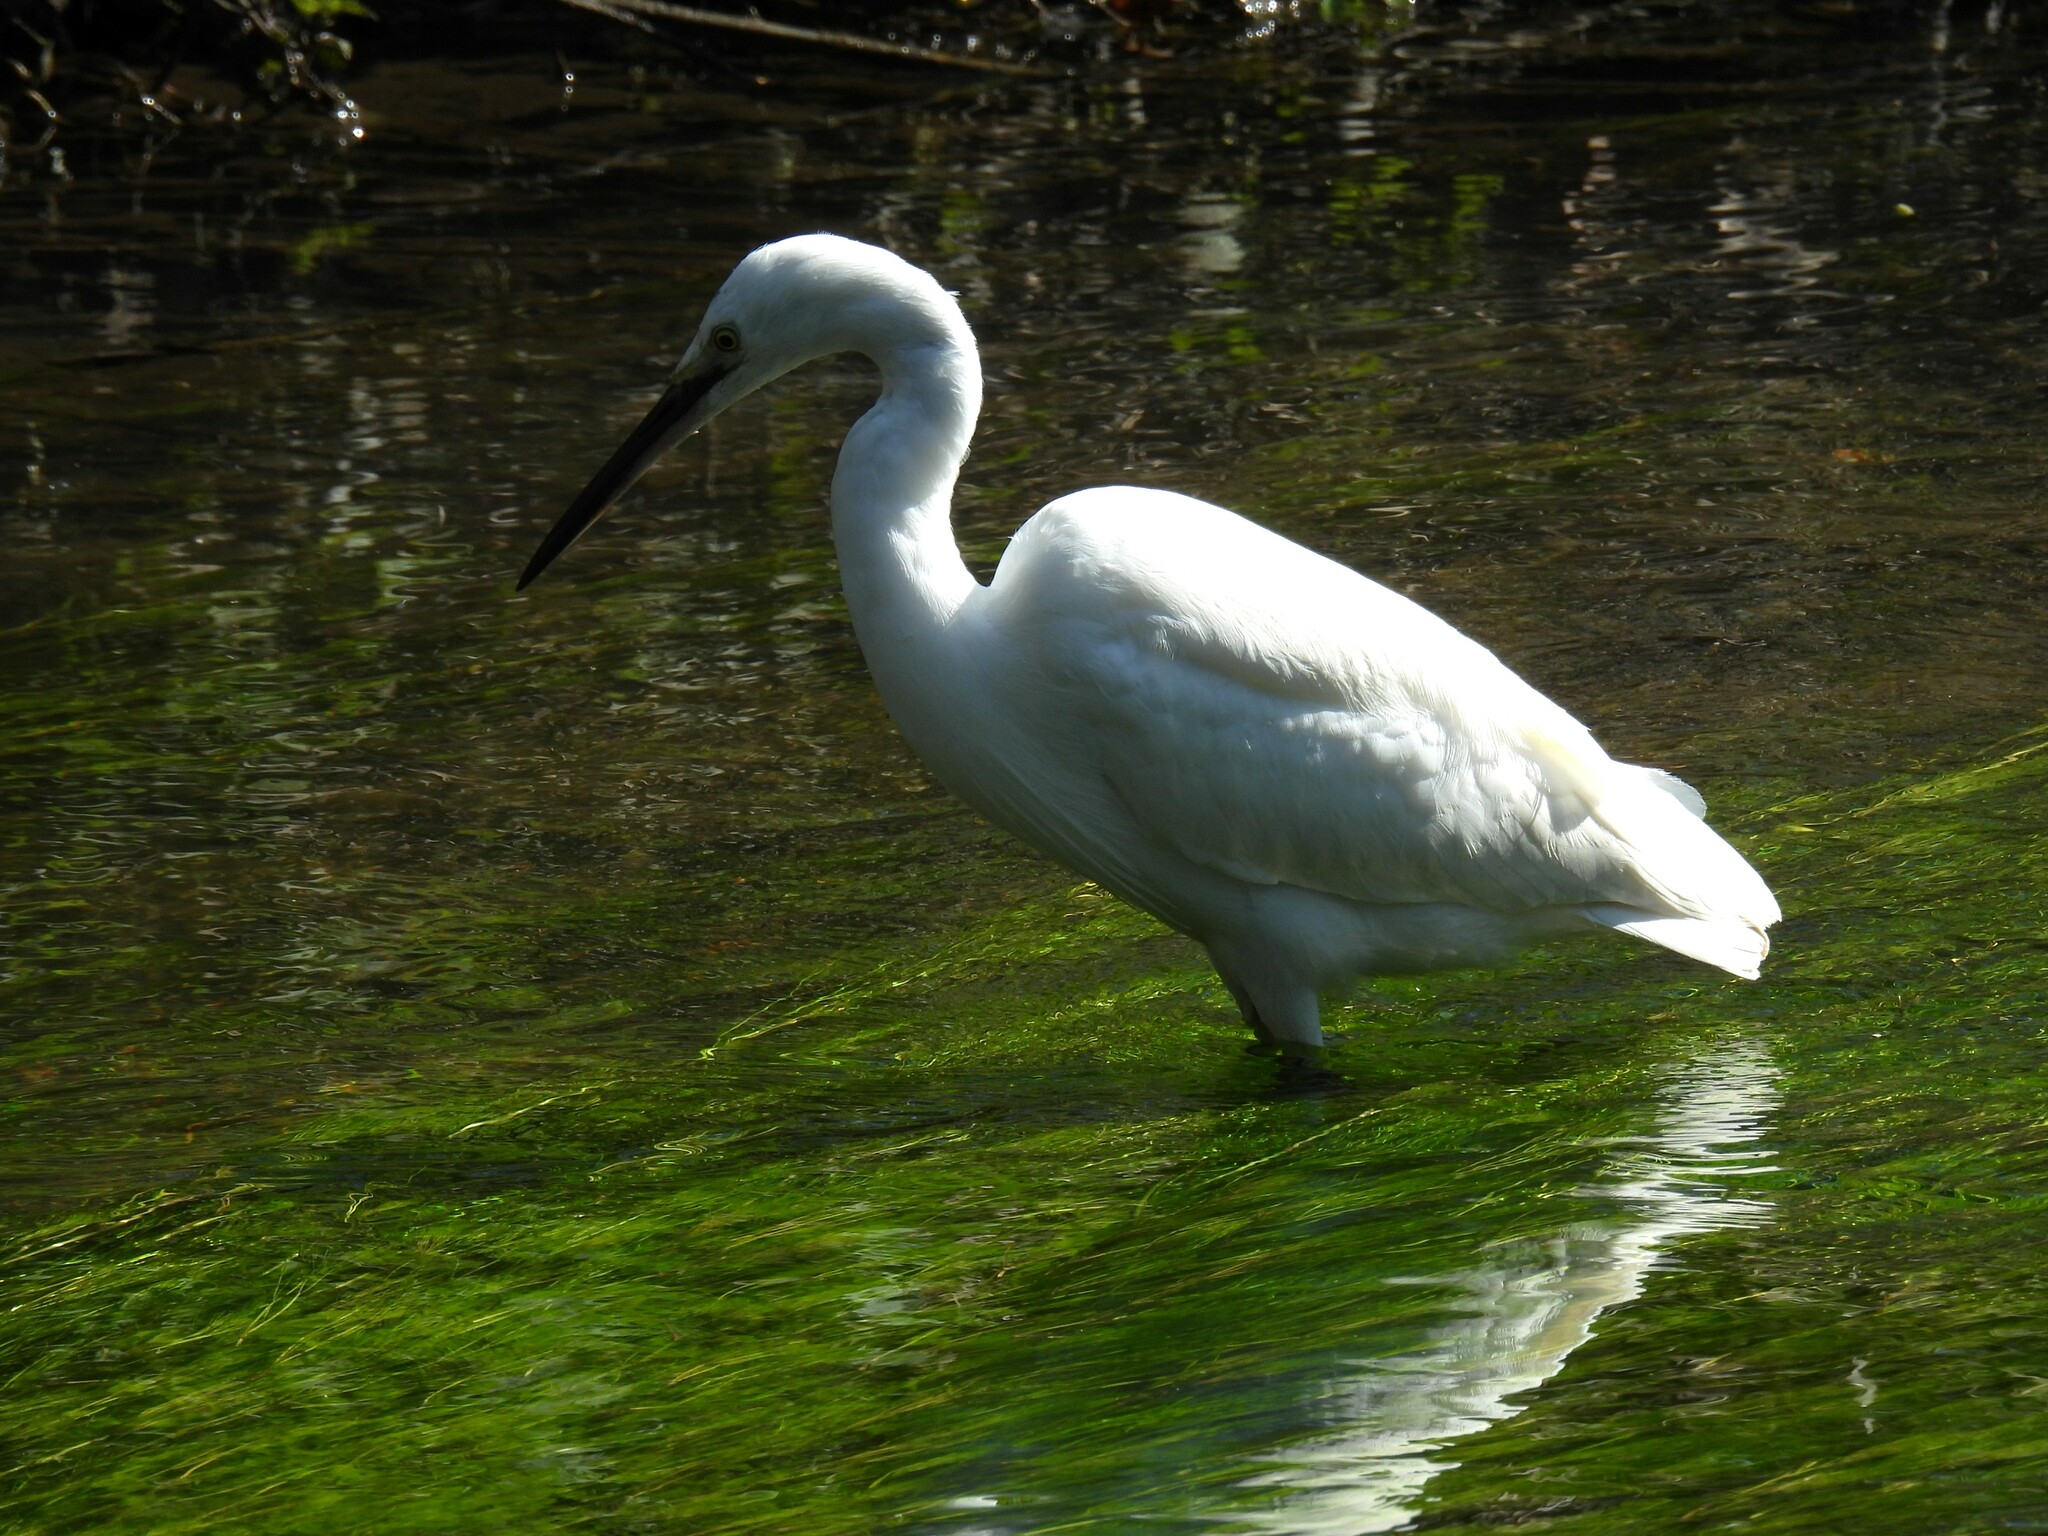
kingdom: Animalia
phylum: Chordata
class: Aves
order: Pelecaniformes
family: Ardeidae
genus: Egretta
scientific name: Egretta garzetta
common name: Little egret
